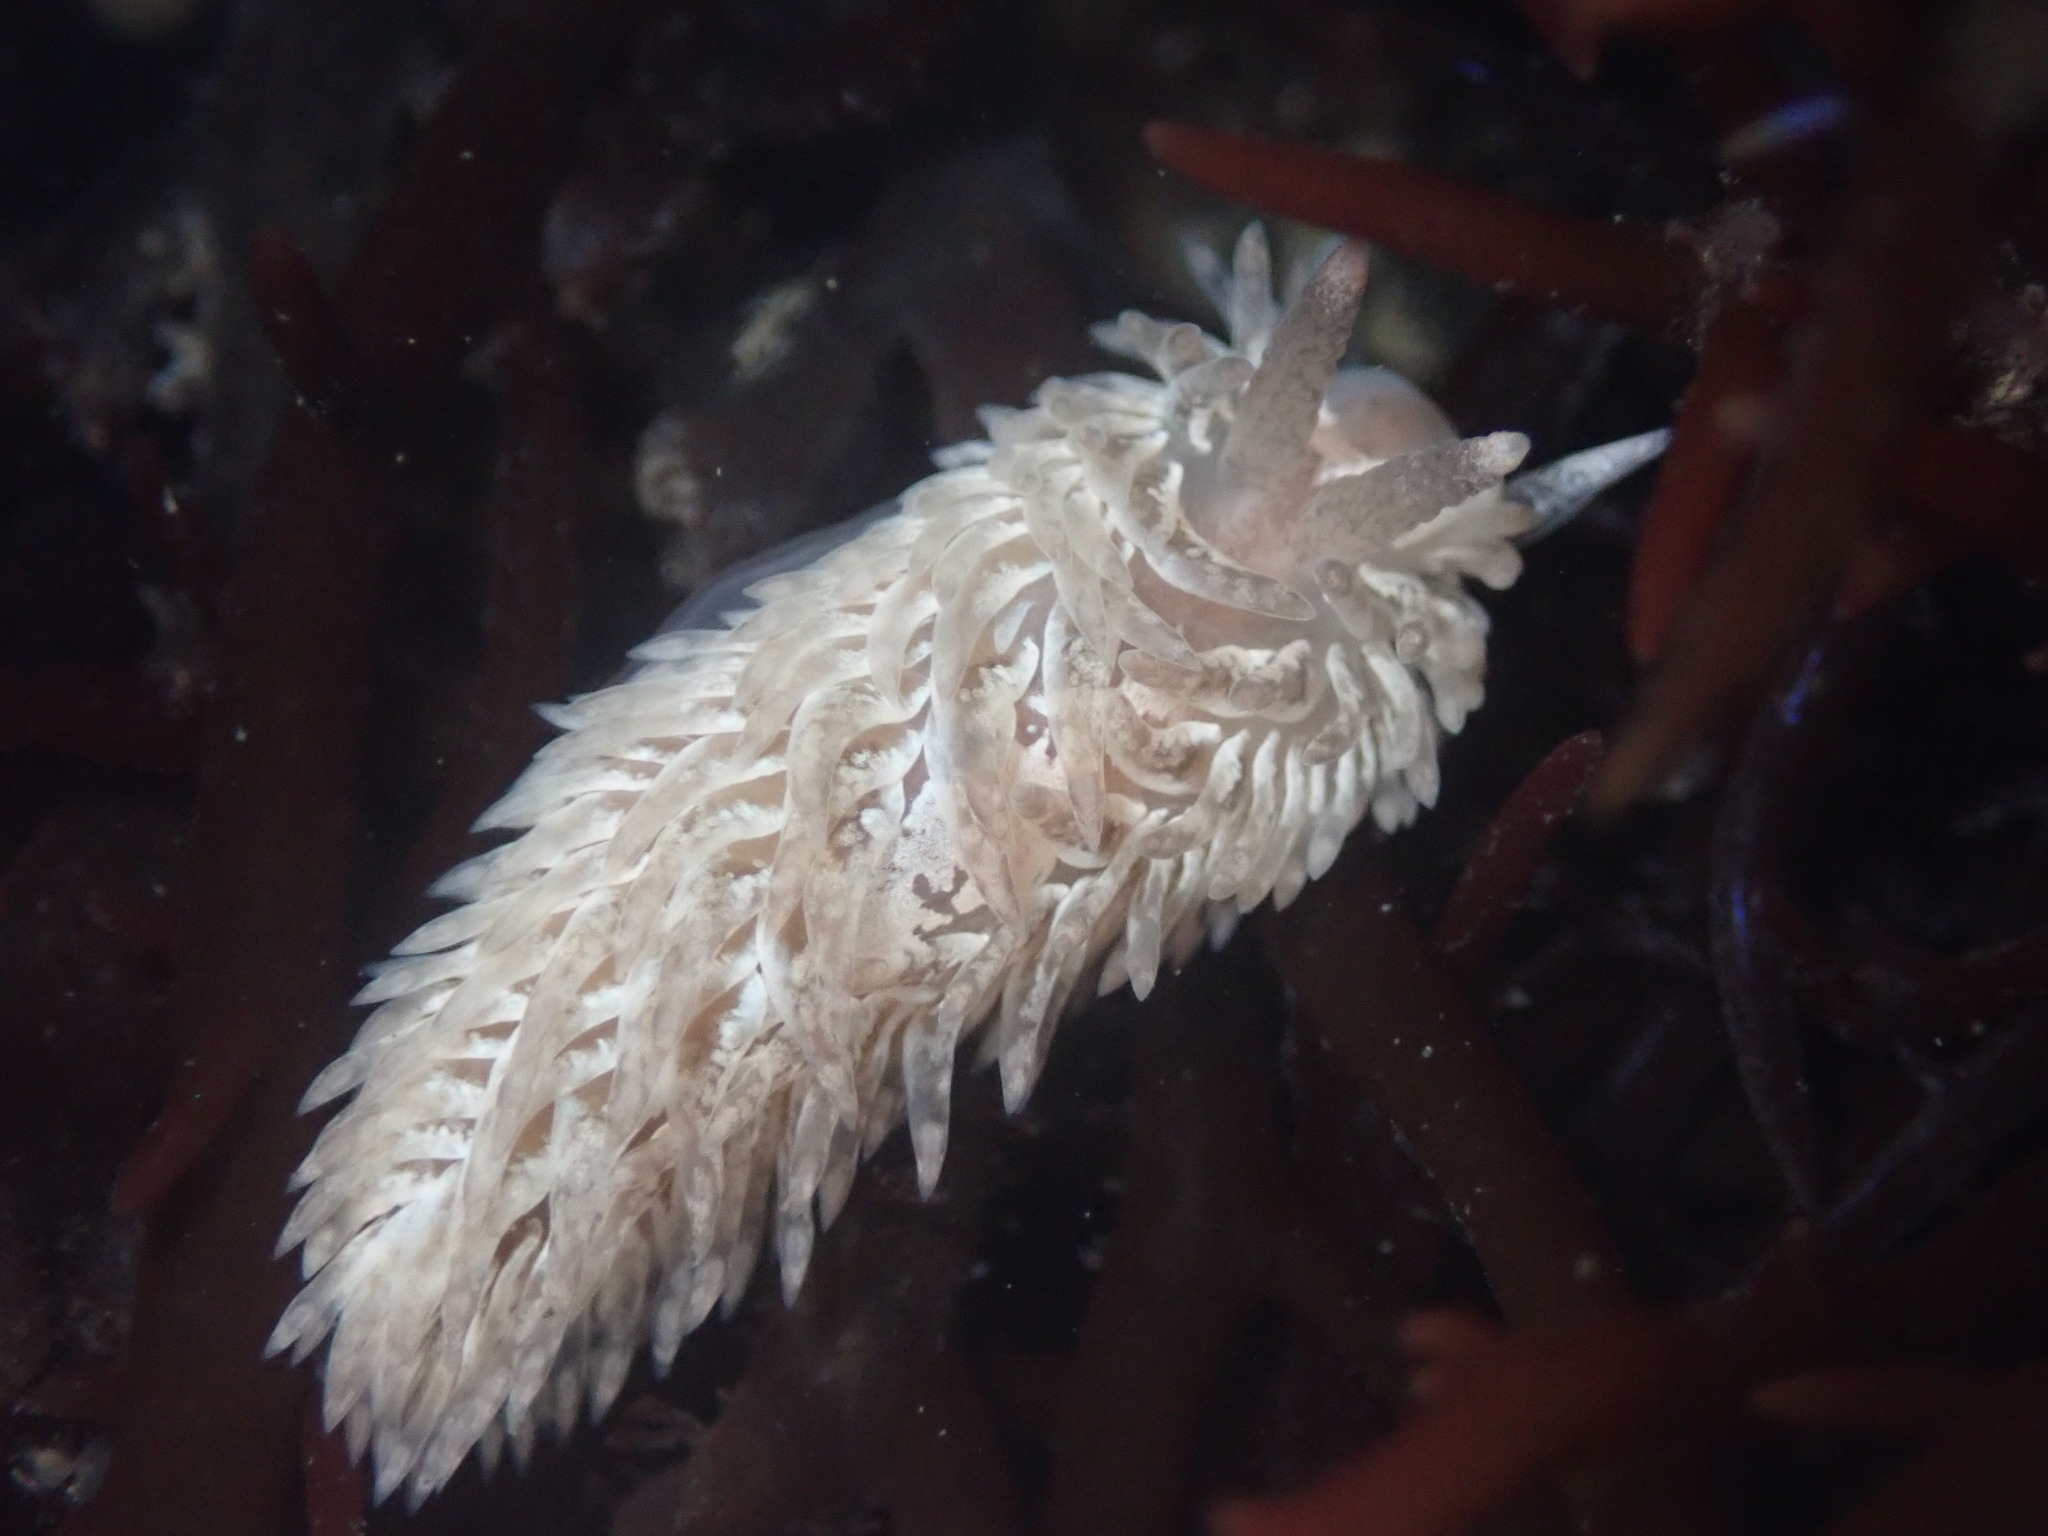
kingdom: Animalia
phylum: Mollusca
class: Gastropoda
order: Nudibranchia
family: Aeolidiidae
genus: Aeolidia
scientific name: Aeolidia loui
